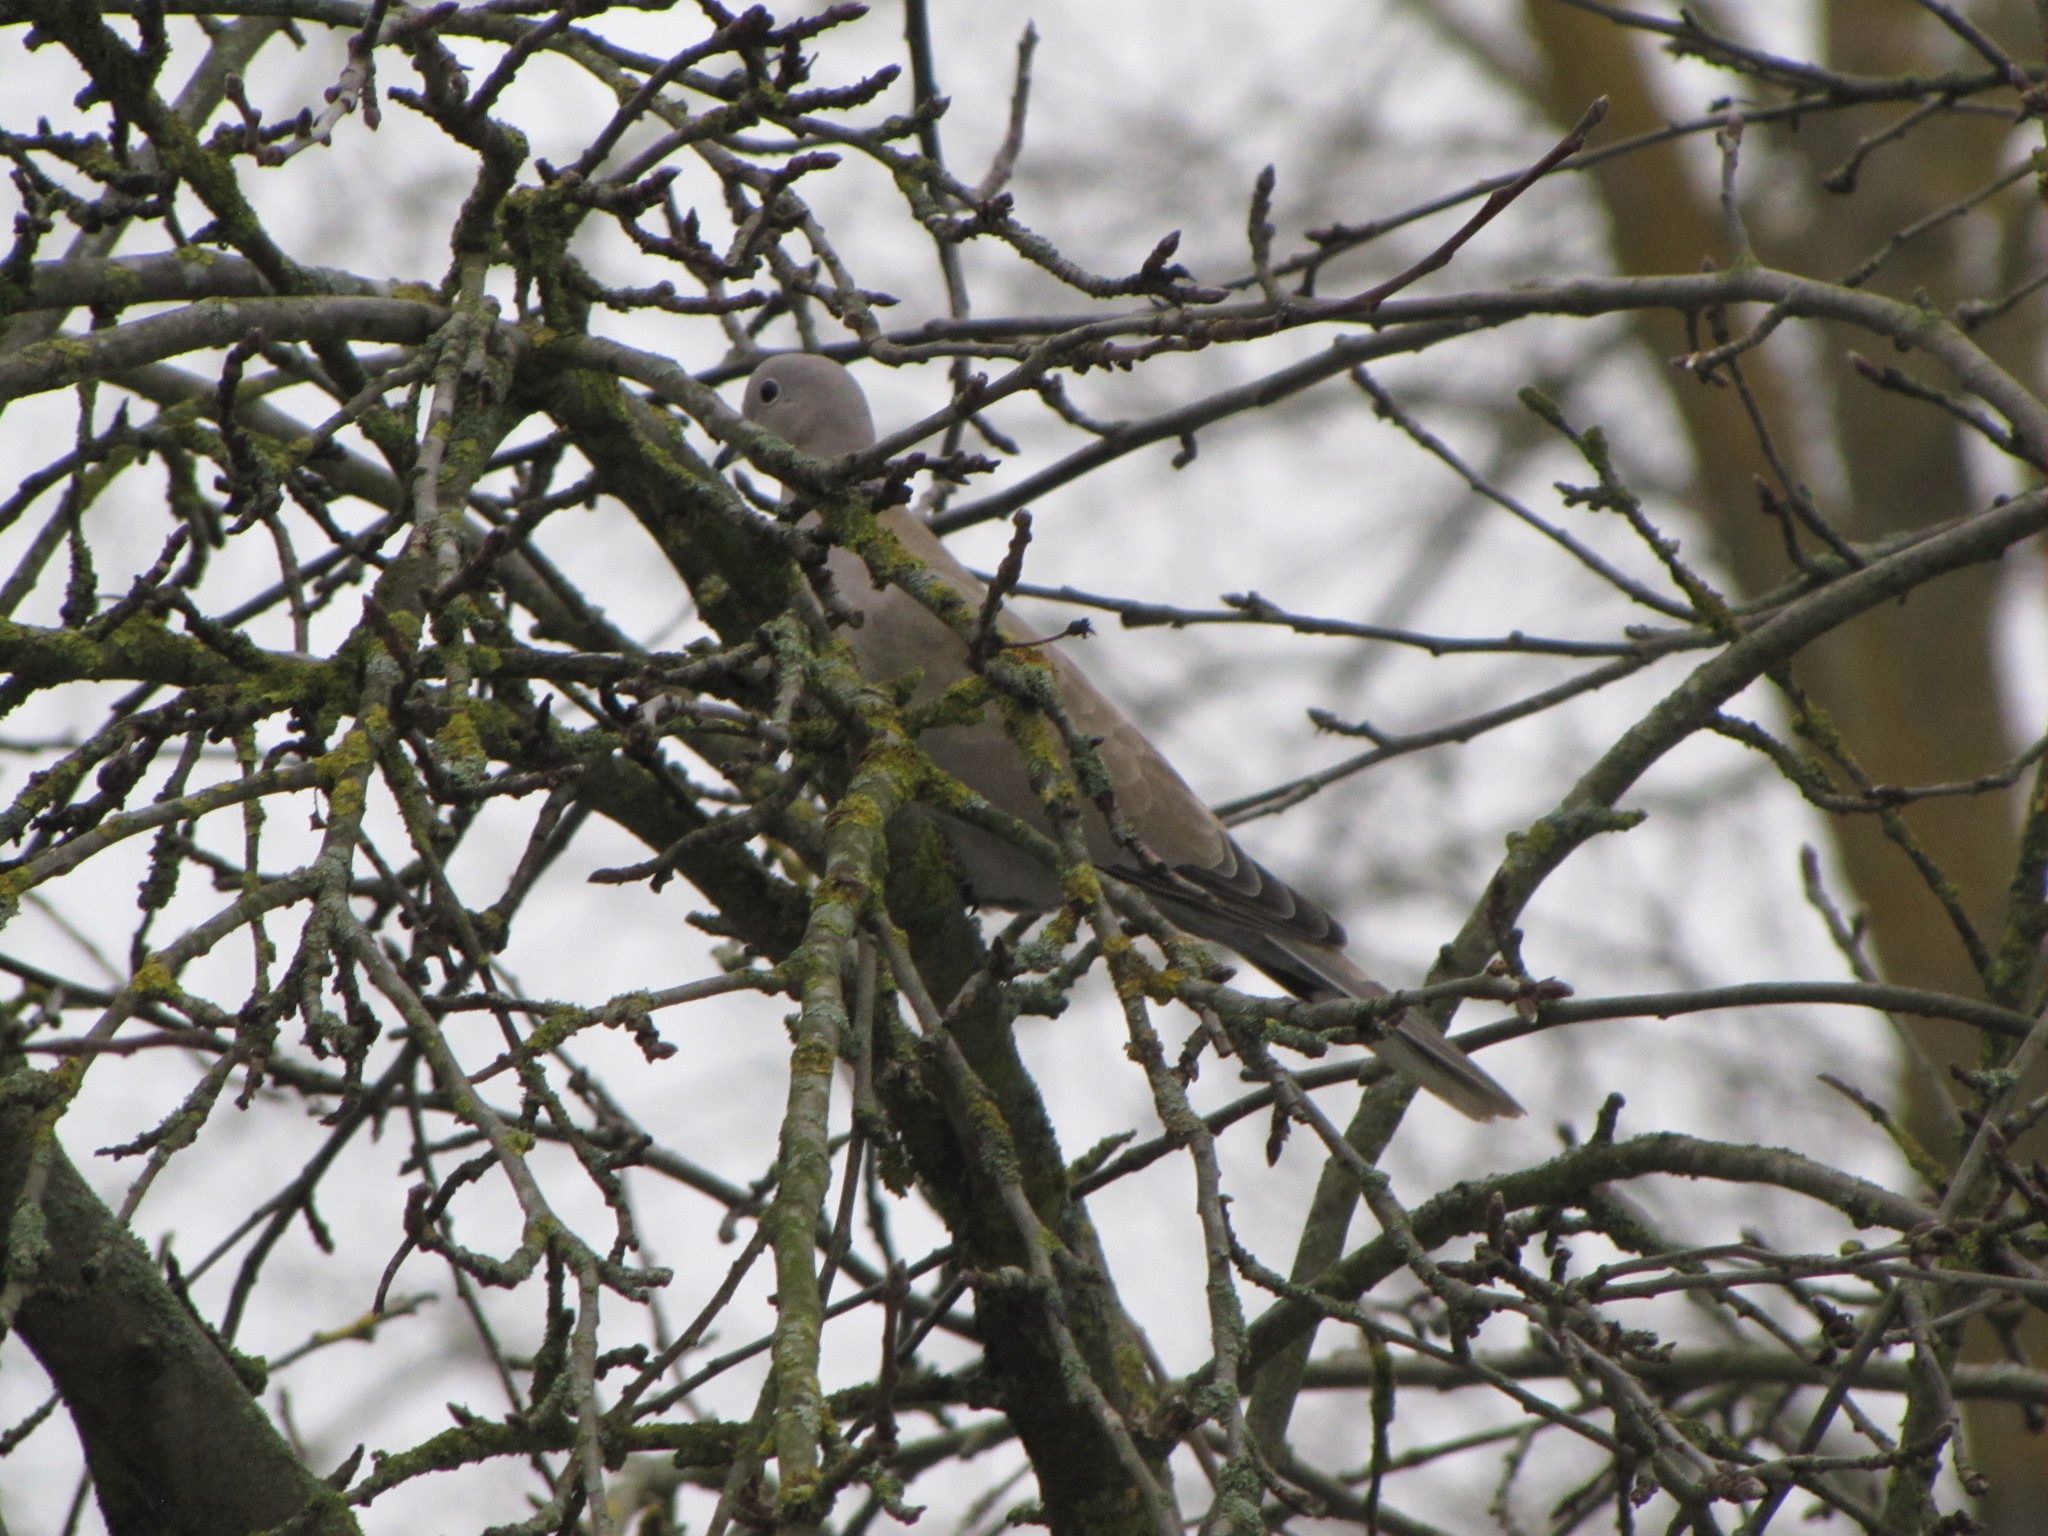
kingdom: Animalia
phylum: Chordata
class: Aves
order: Columbiformes
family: Columbidae
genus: Streptopelia
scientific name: Streptopelia decaocto
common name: Eurasian collared dove
